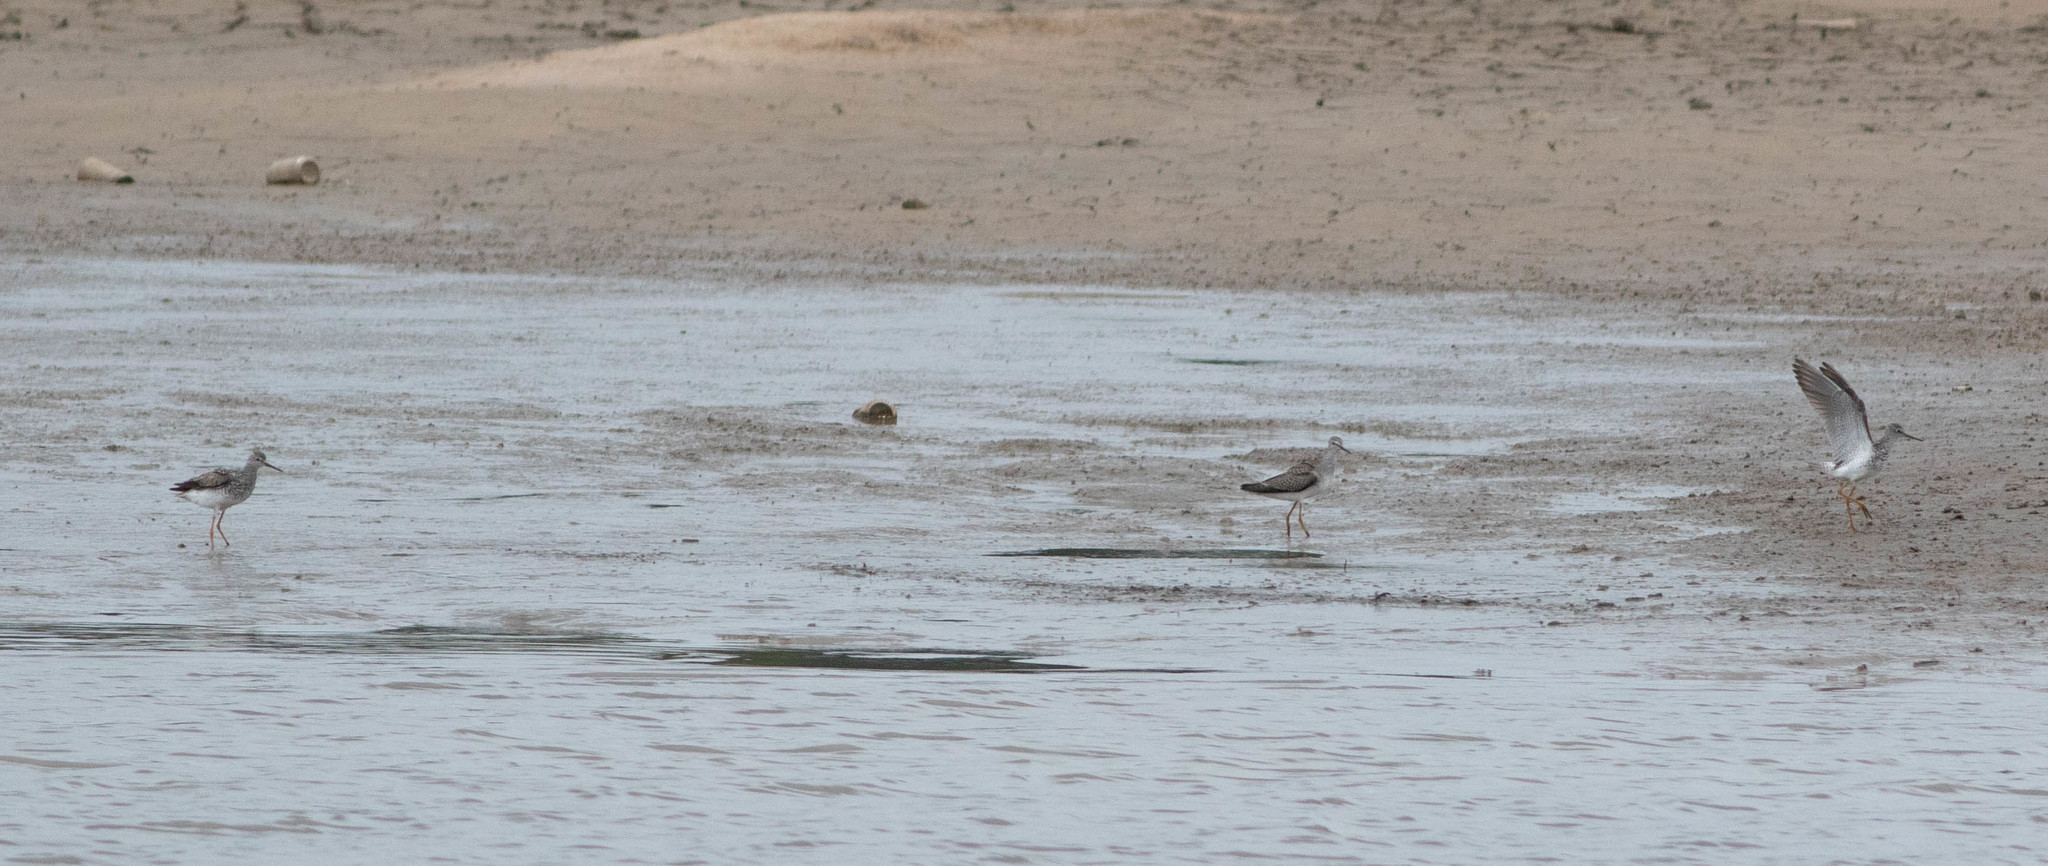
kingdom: Animalia
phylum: Chordata
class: Aves
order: Charadriiformes
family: Scolopacidae
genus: Tringa
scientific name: Tringa melanoleuca
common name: Greater yellowlegs
